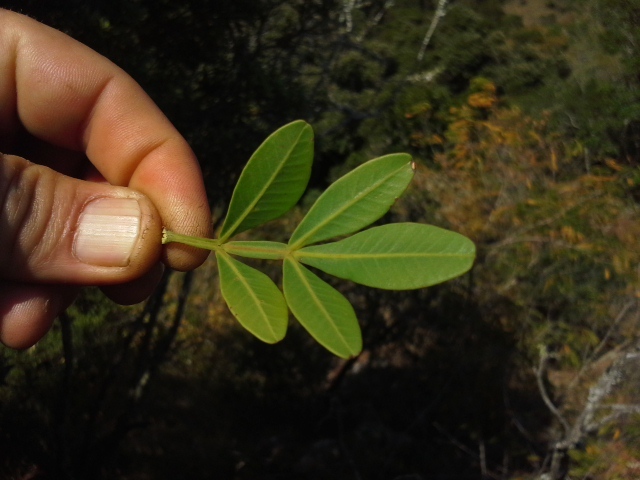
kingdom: Plantae
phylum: Tracheophyta
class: Magnoliopsida
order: Sapindales
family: Meliaceae
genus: Ekebergia
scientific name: Ekebergia pterophylla
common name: Cape ash
